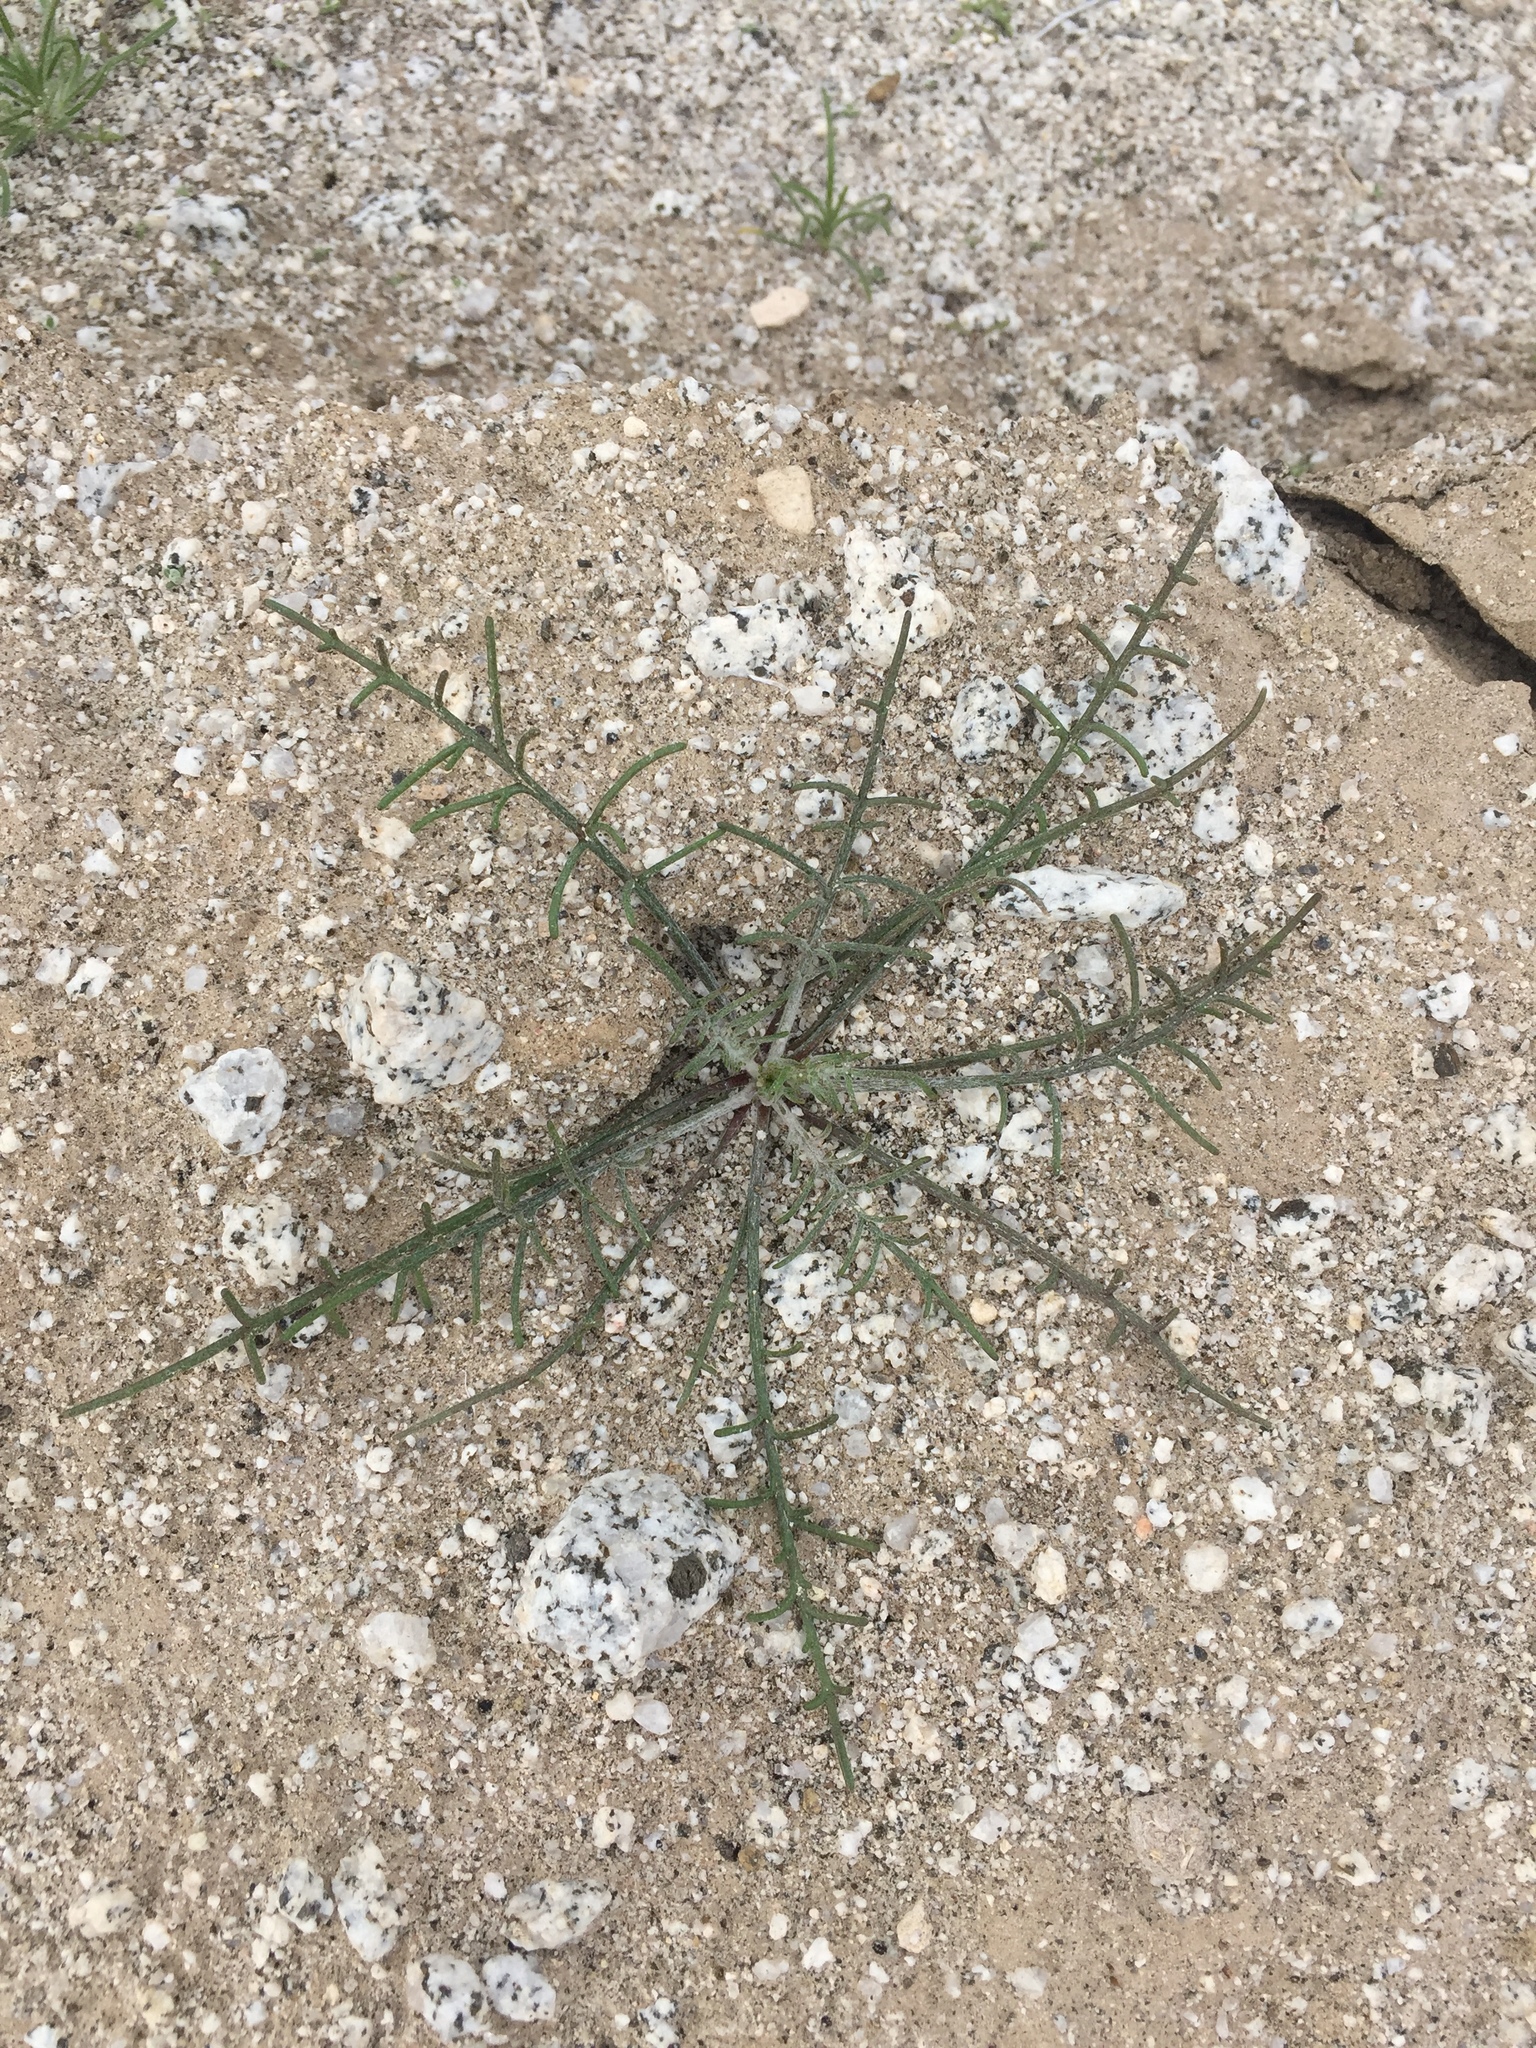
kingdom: Plantae
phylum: Tracheophyta
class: Magnoliopsida
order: Asterales
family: Asteraceae
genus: Chaenactis
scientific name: Chaenactis stevioides
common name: Desert pincushion
